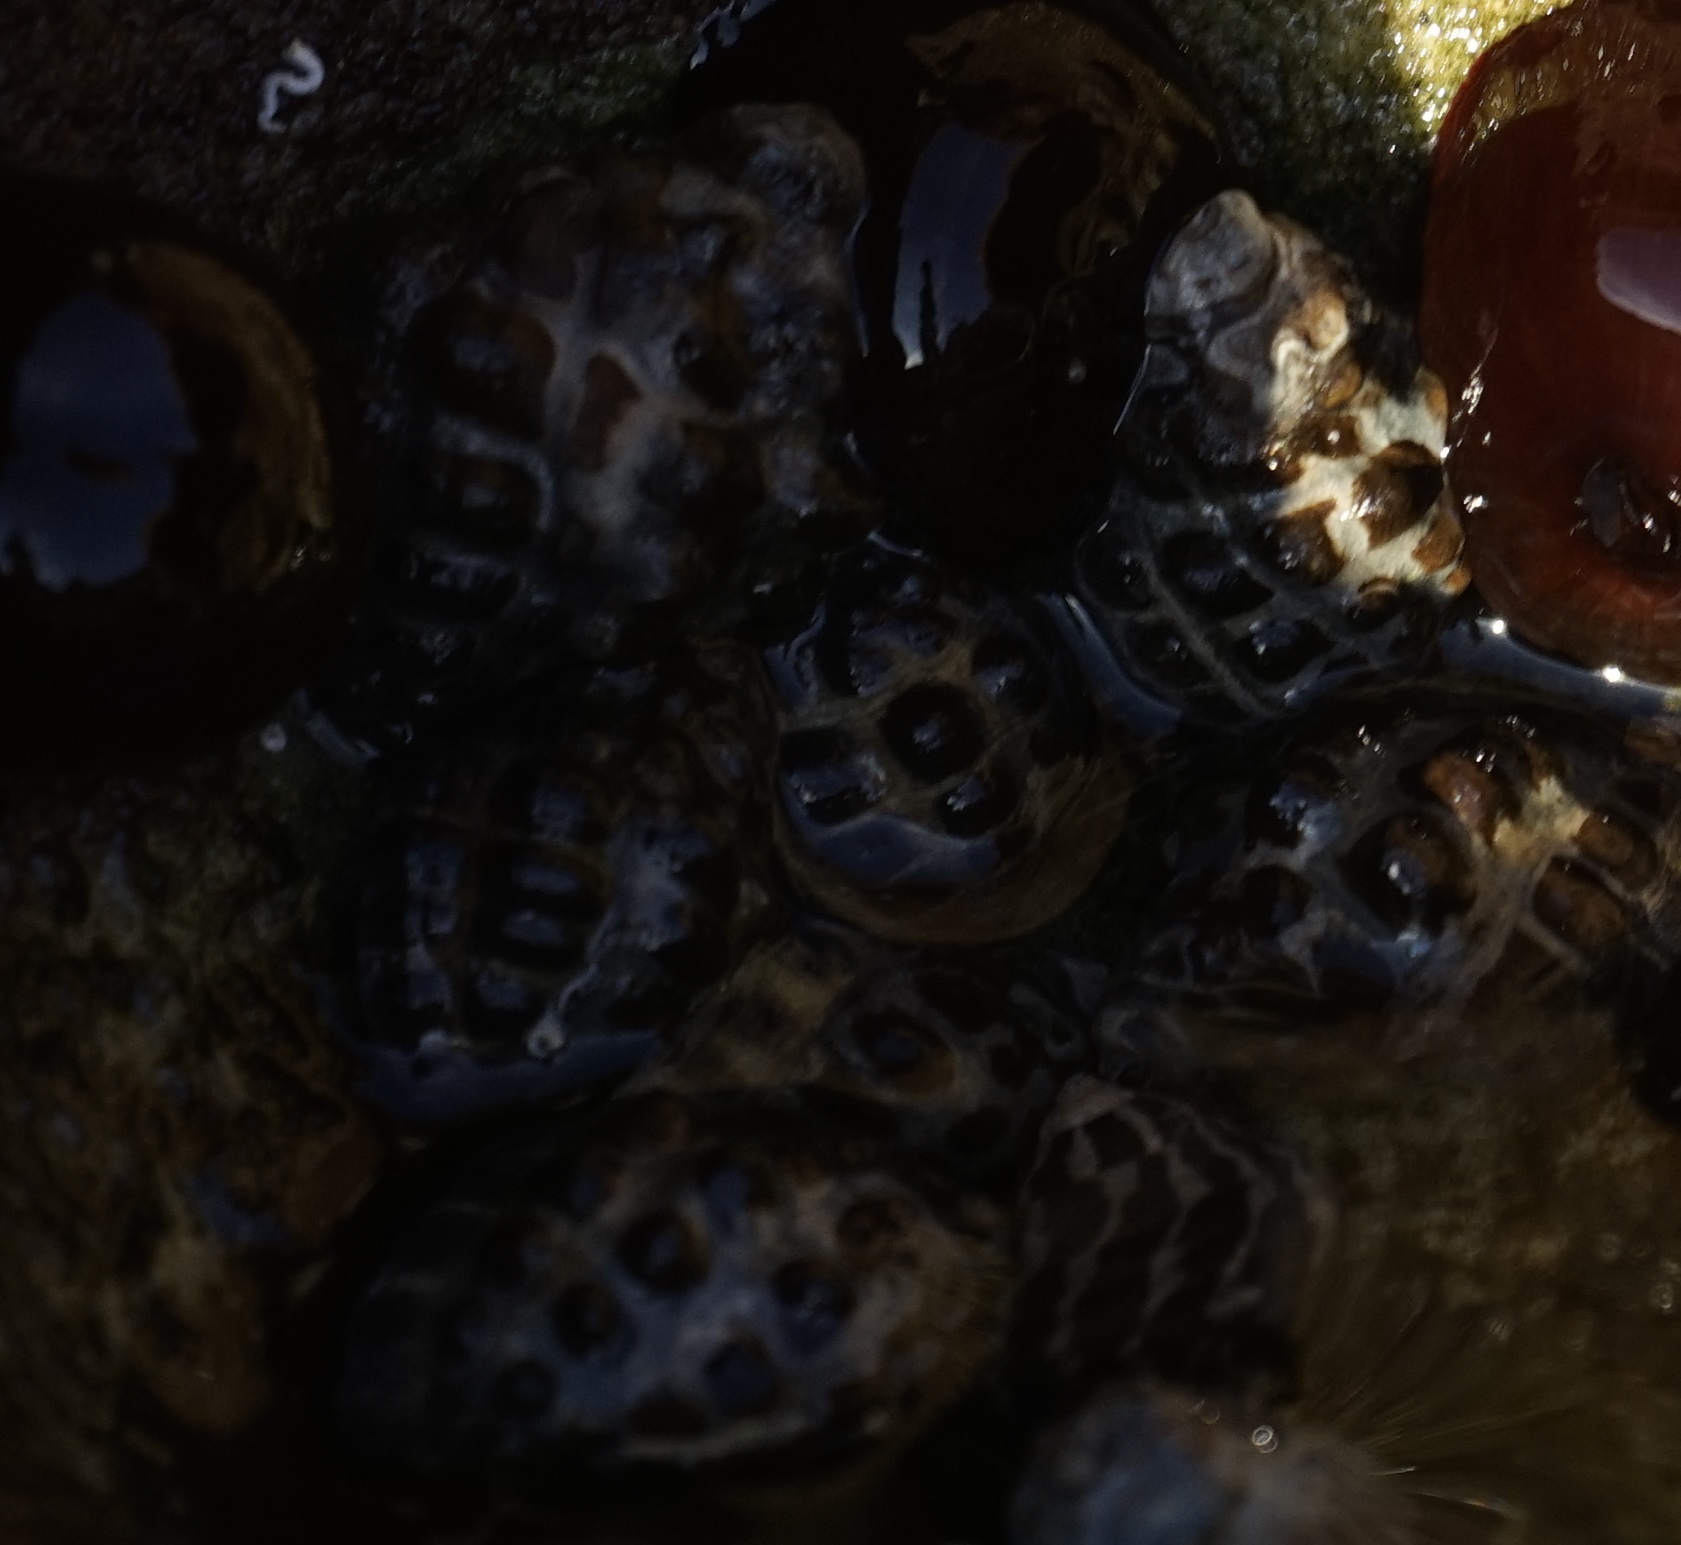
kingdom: Animalia
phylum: Mollusca
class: Gastropoda
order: Neogastropoda
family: Muricidae
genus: Tenguella
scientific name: Tenguella marginalba
